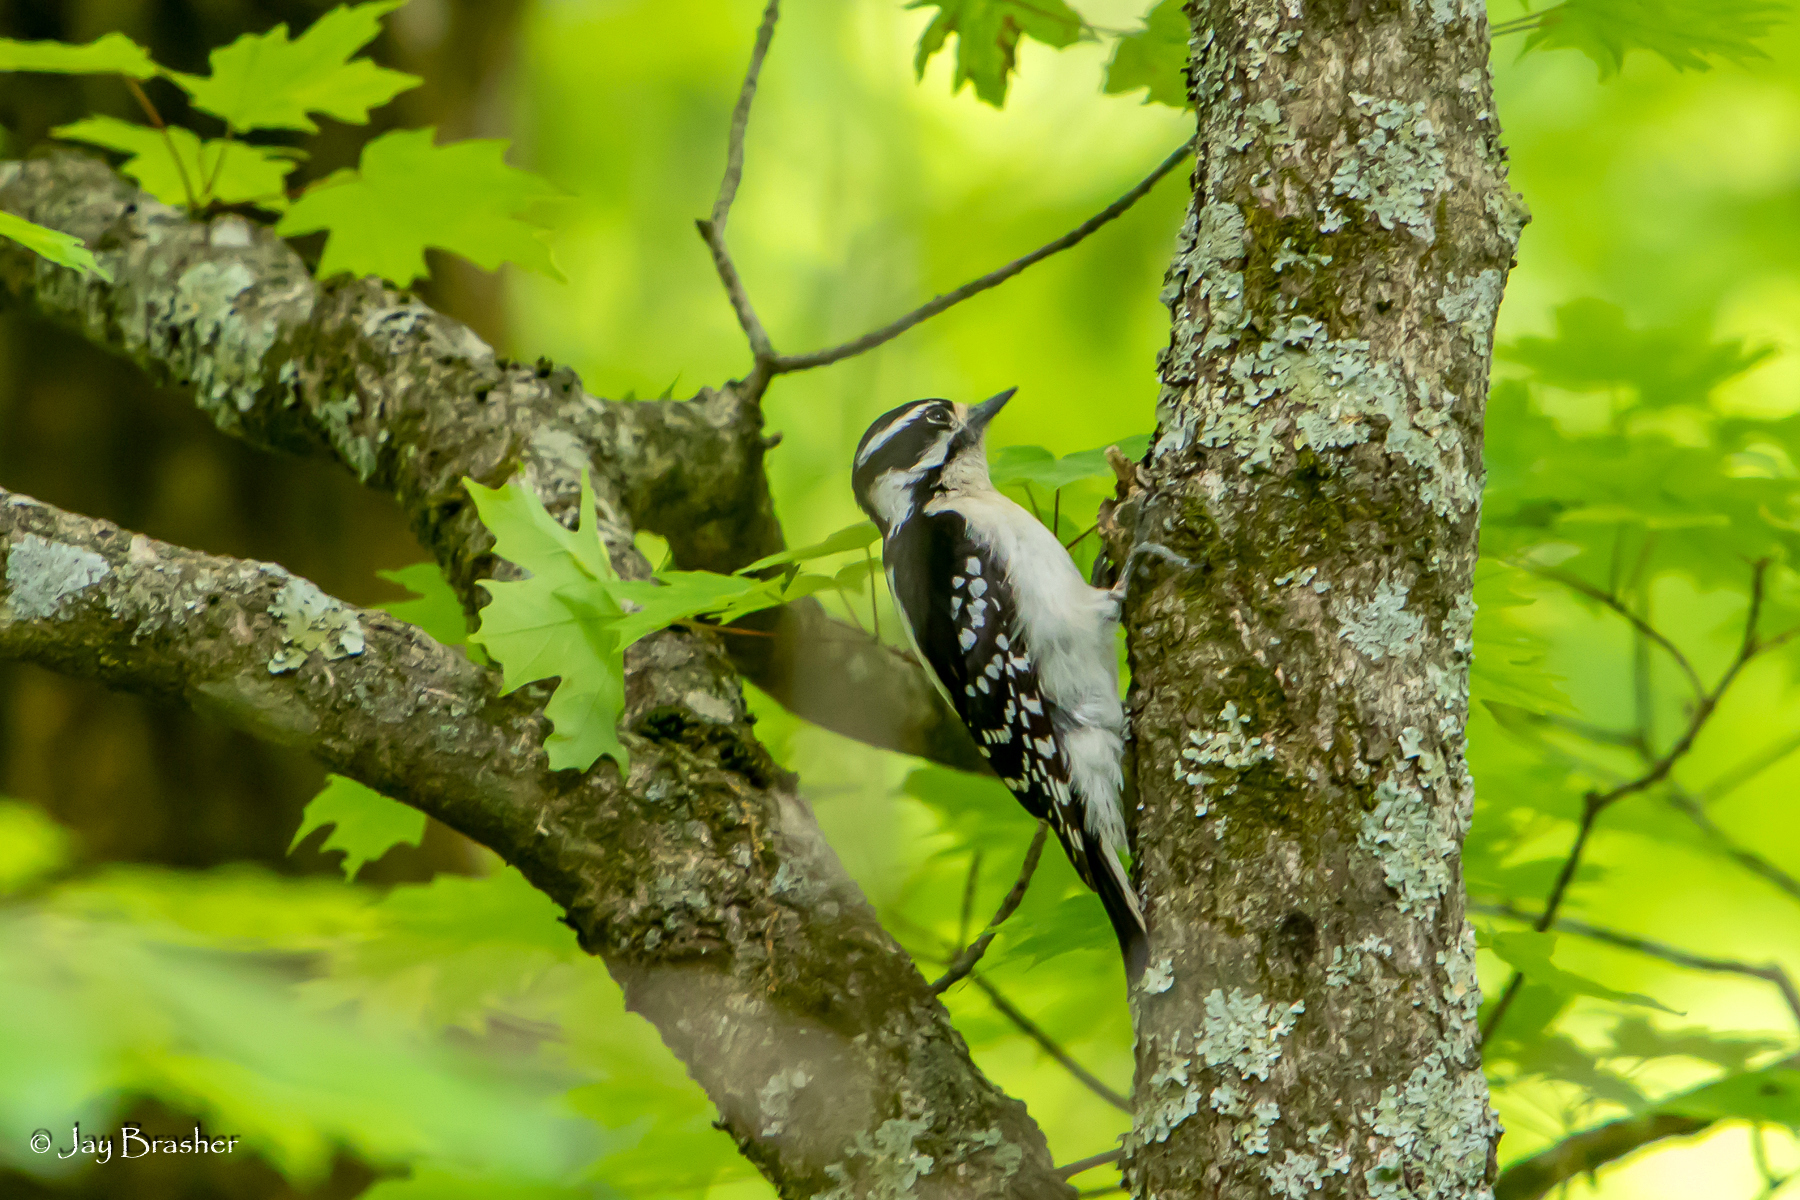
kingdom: Animalia
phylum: Chordata
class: Aves
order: Piciformes
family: Picidae
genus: Dryobates
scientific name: Dryobates pubescens
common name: Downy woodpecker
